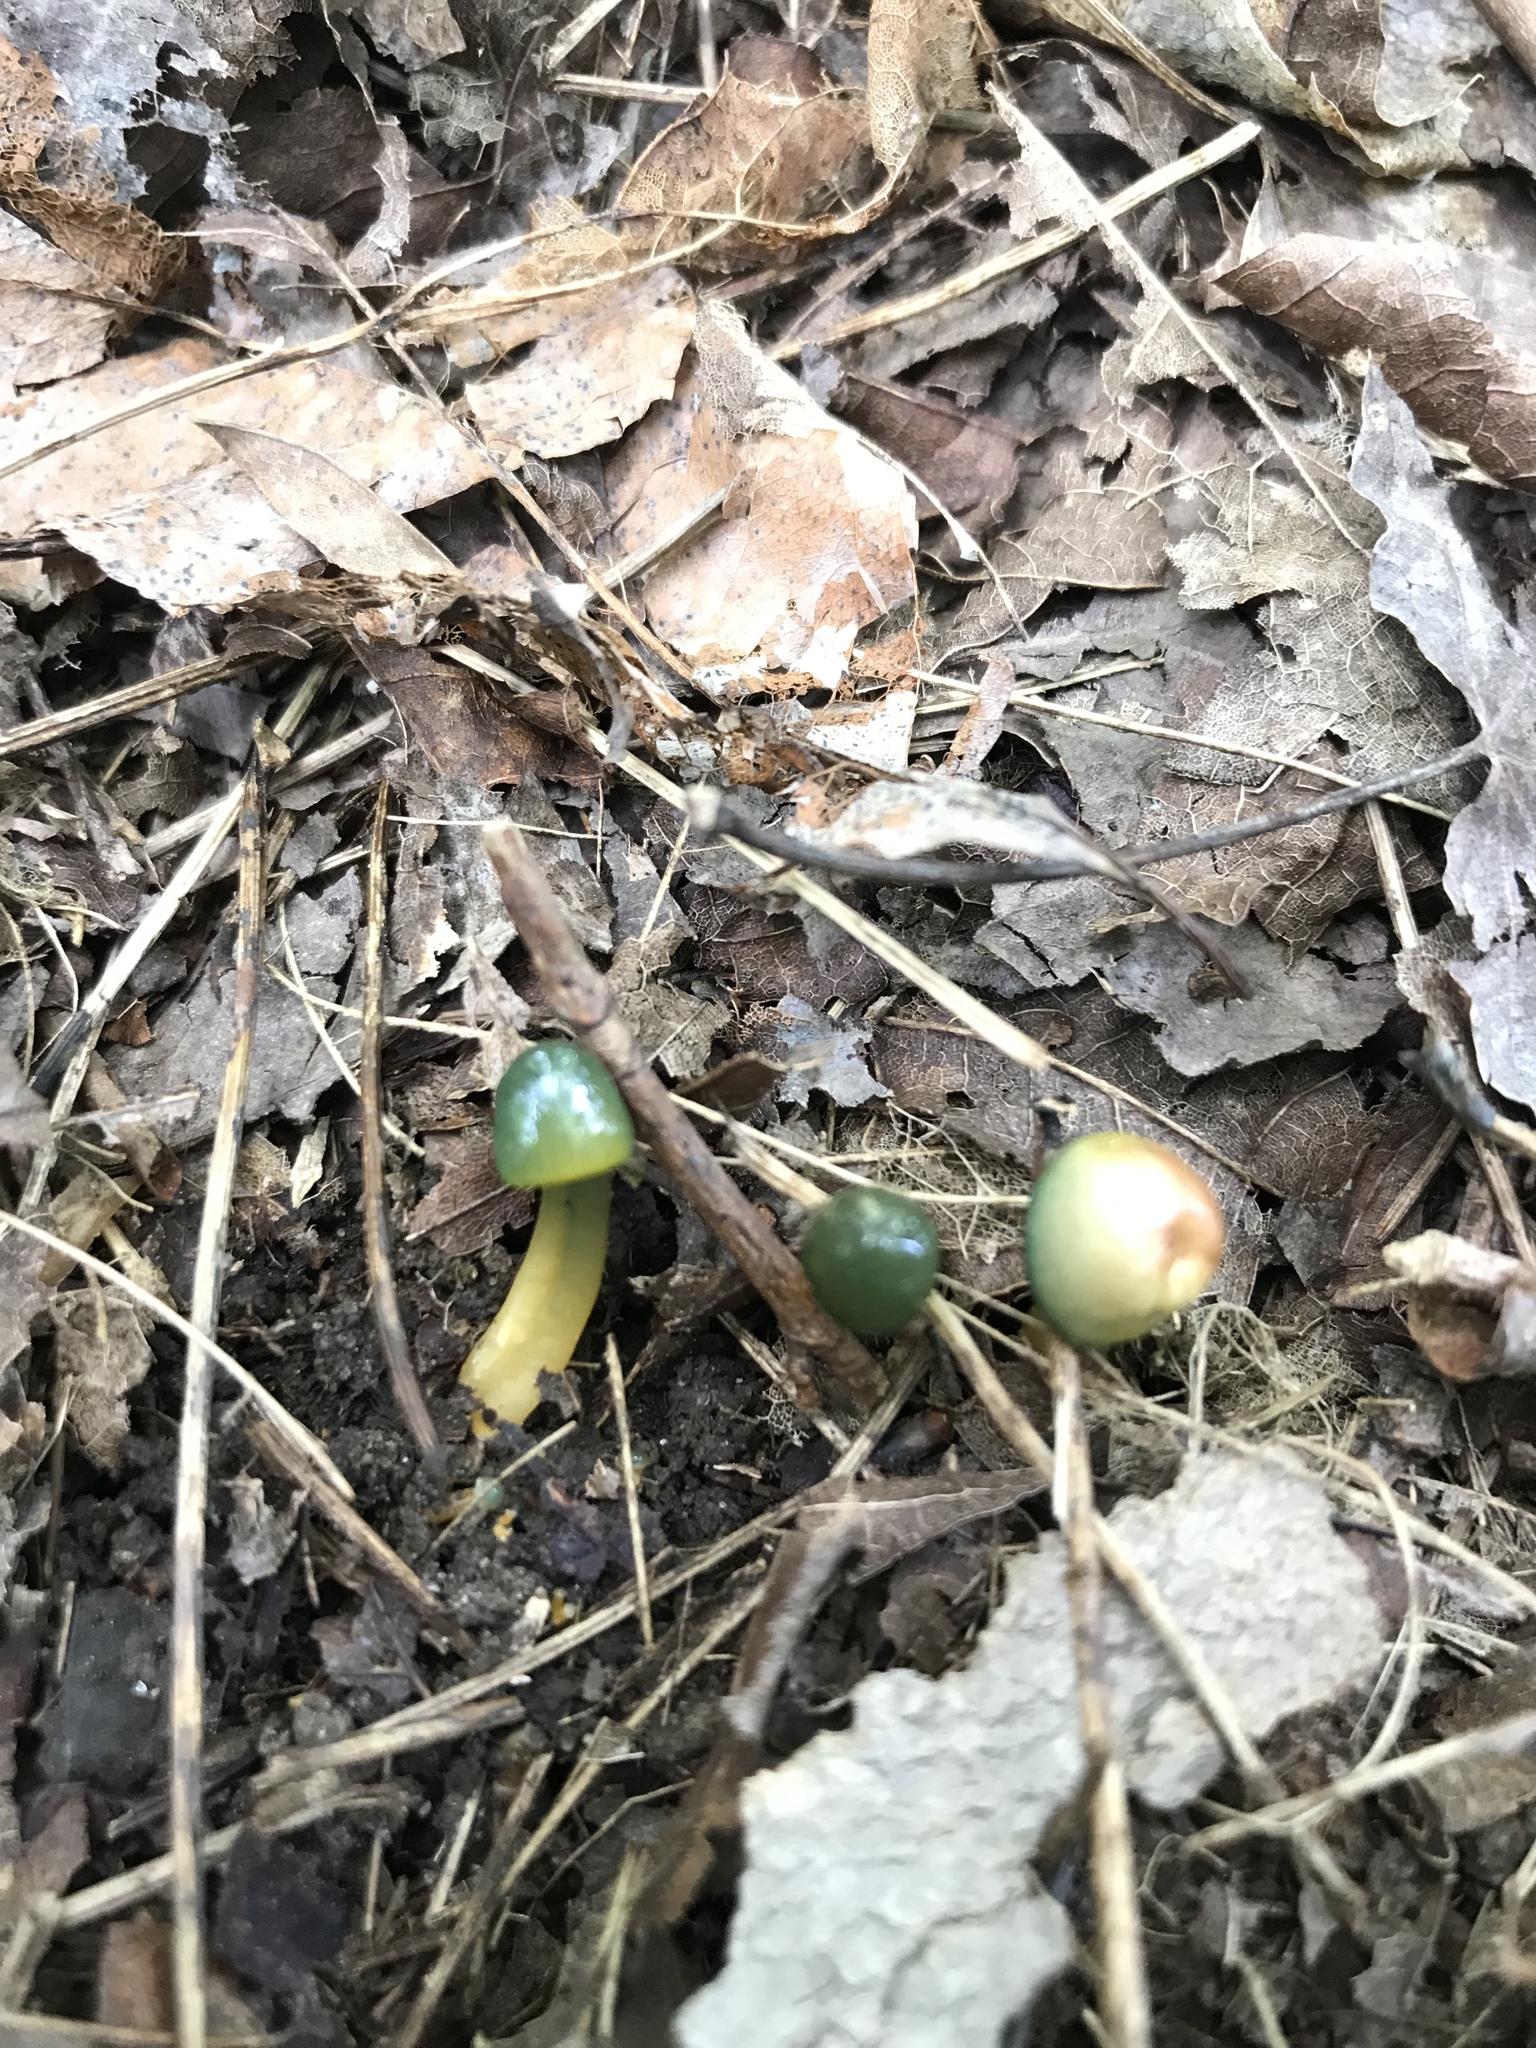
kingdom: Fungi
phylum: Basidiomycota
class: Agaricomycetes
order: Agaricales
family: Hygrophoraceae
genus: Gliophorus
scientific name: Gliophorus psittacinus
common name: Parrot wax-cap
